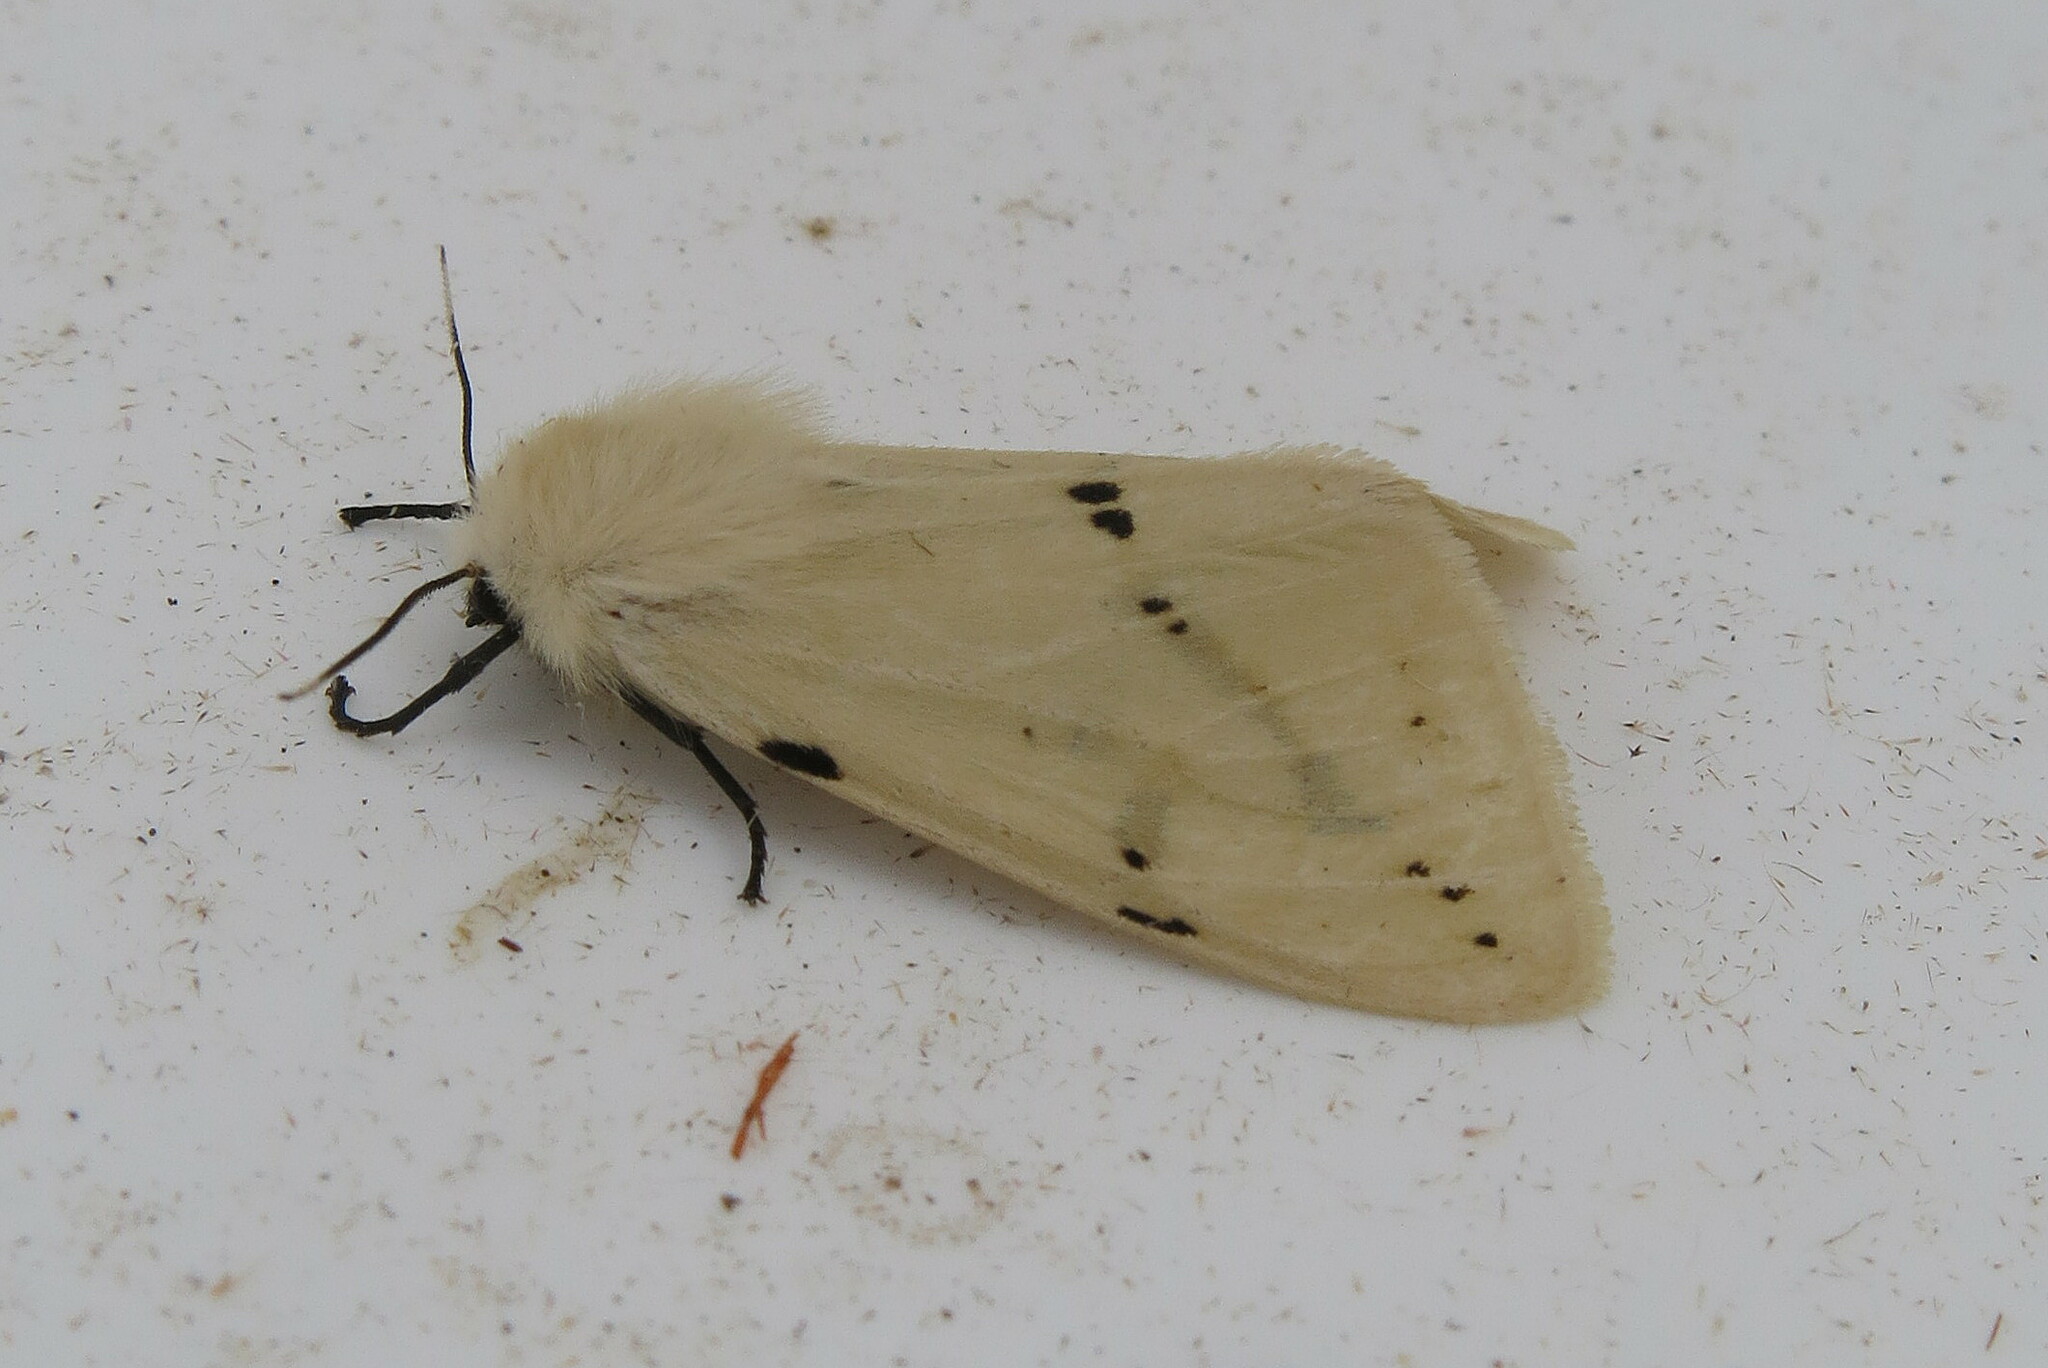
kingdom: Animalia
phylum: Arthropoda
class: Insecta
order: Lepidoptera
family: Erebidae
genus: Spilarctia
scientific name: Spilarctia lutea
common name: Buff ermine
